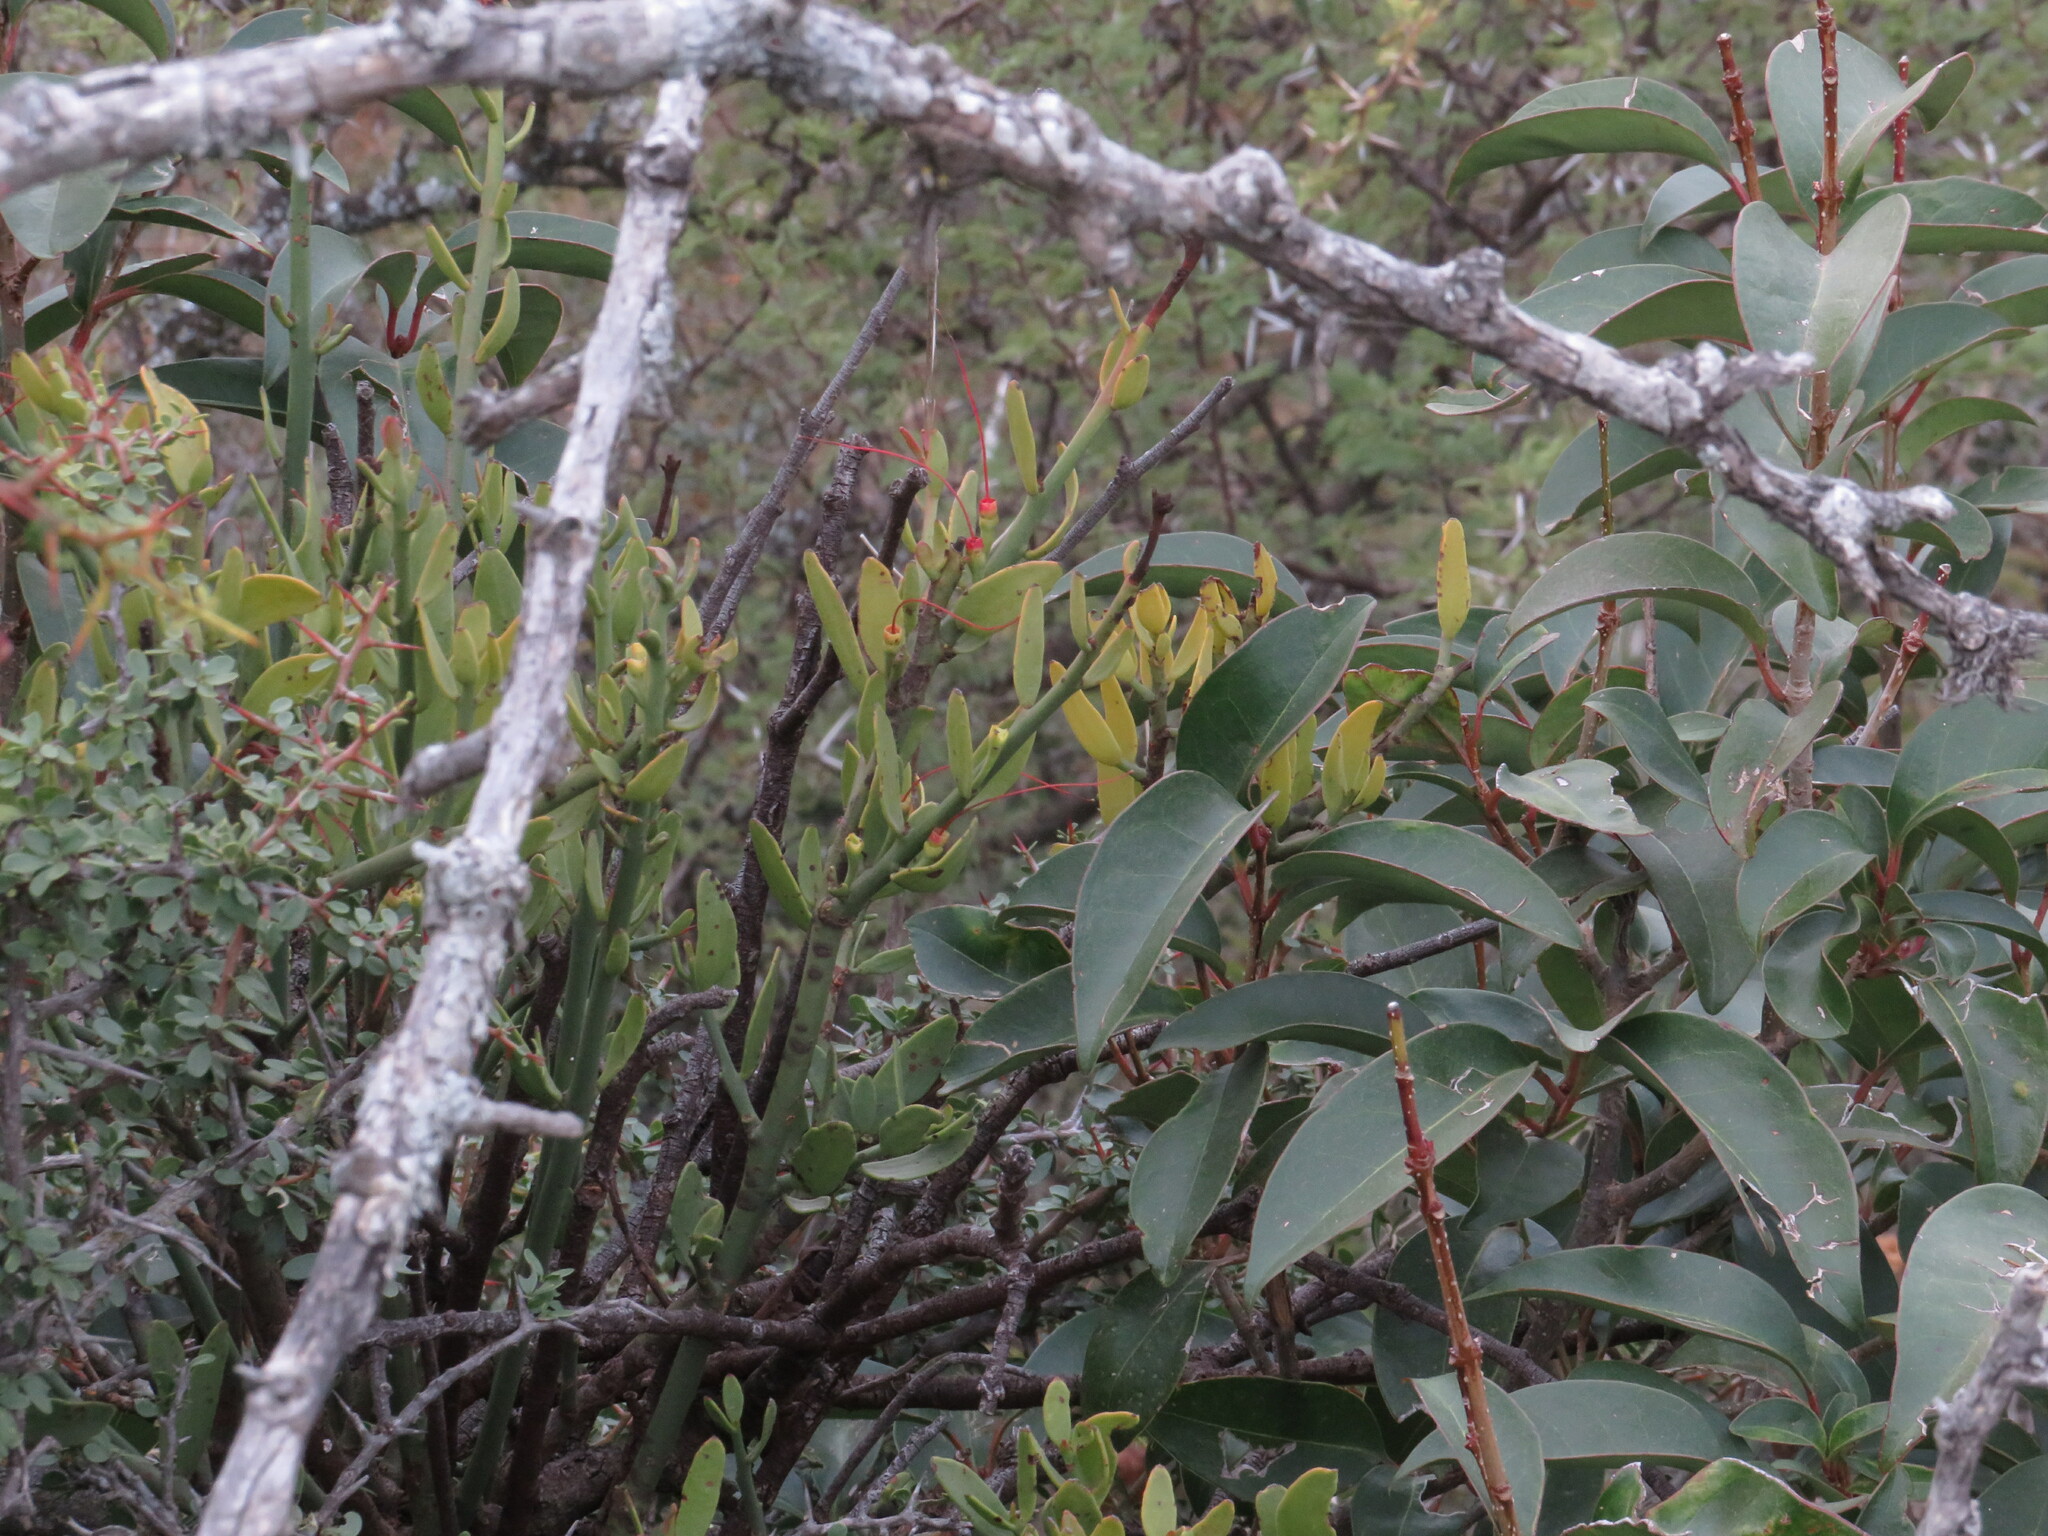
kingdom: Plantae
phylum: Tracheophyta
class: Magnoliopsida
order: Santalales
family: Loranthaceae
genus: Ligaria
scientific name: Ligaria cuneifolia
